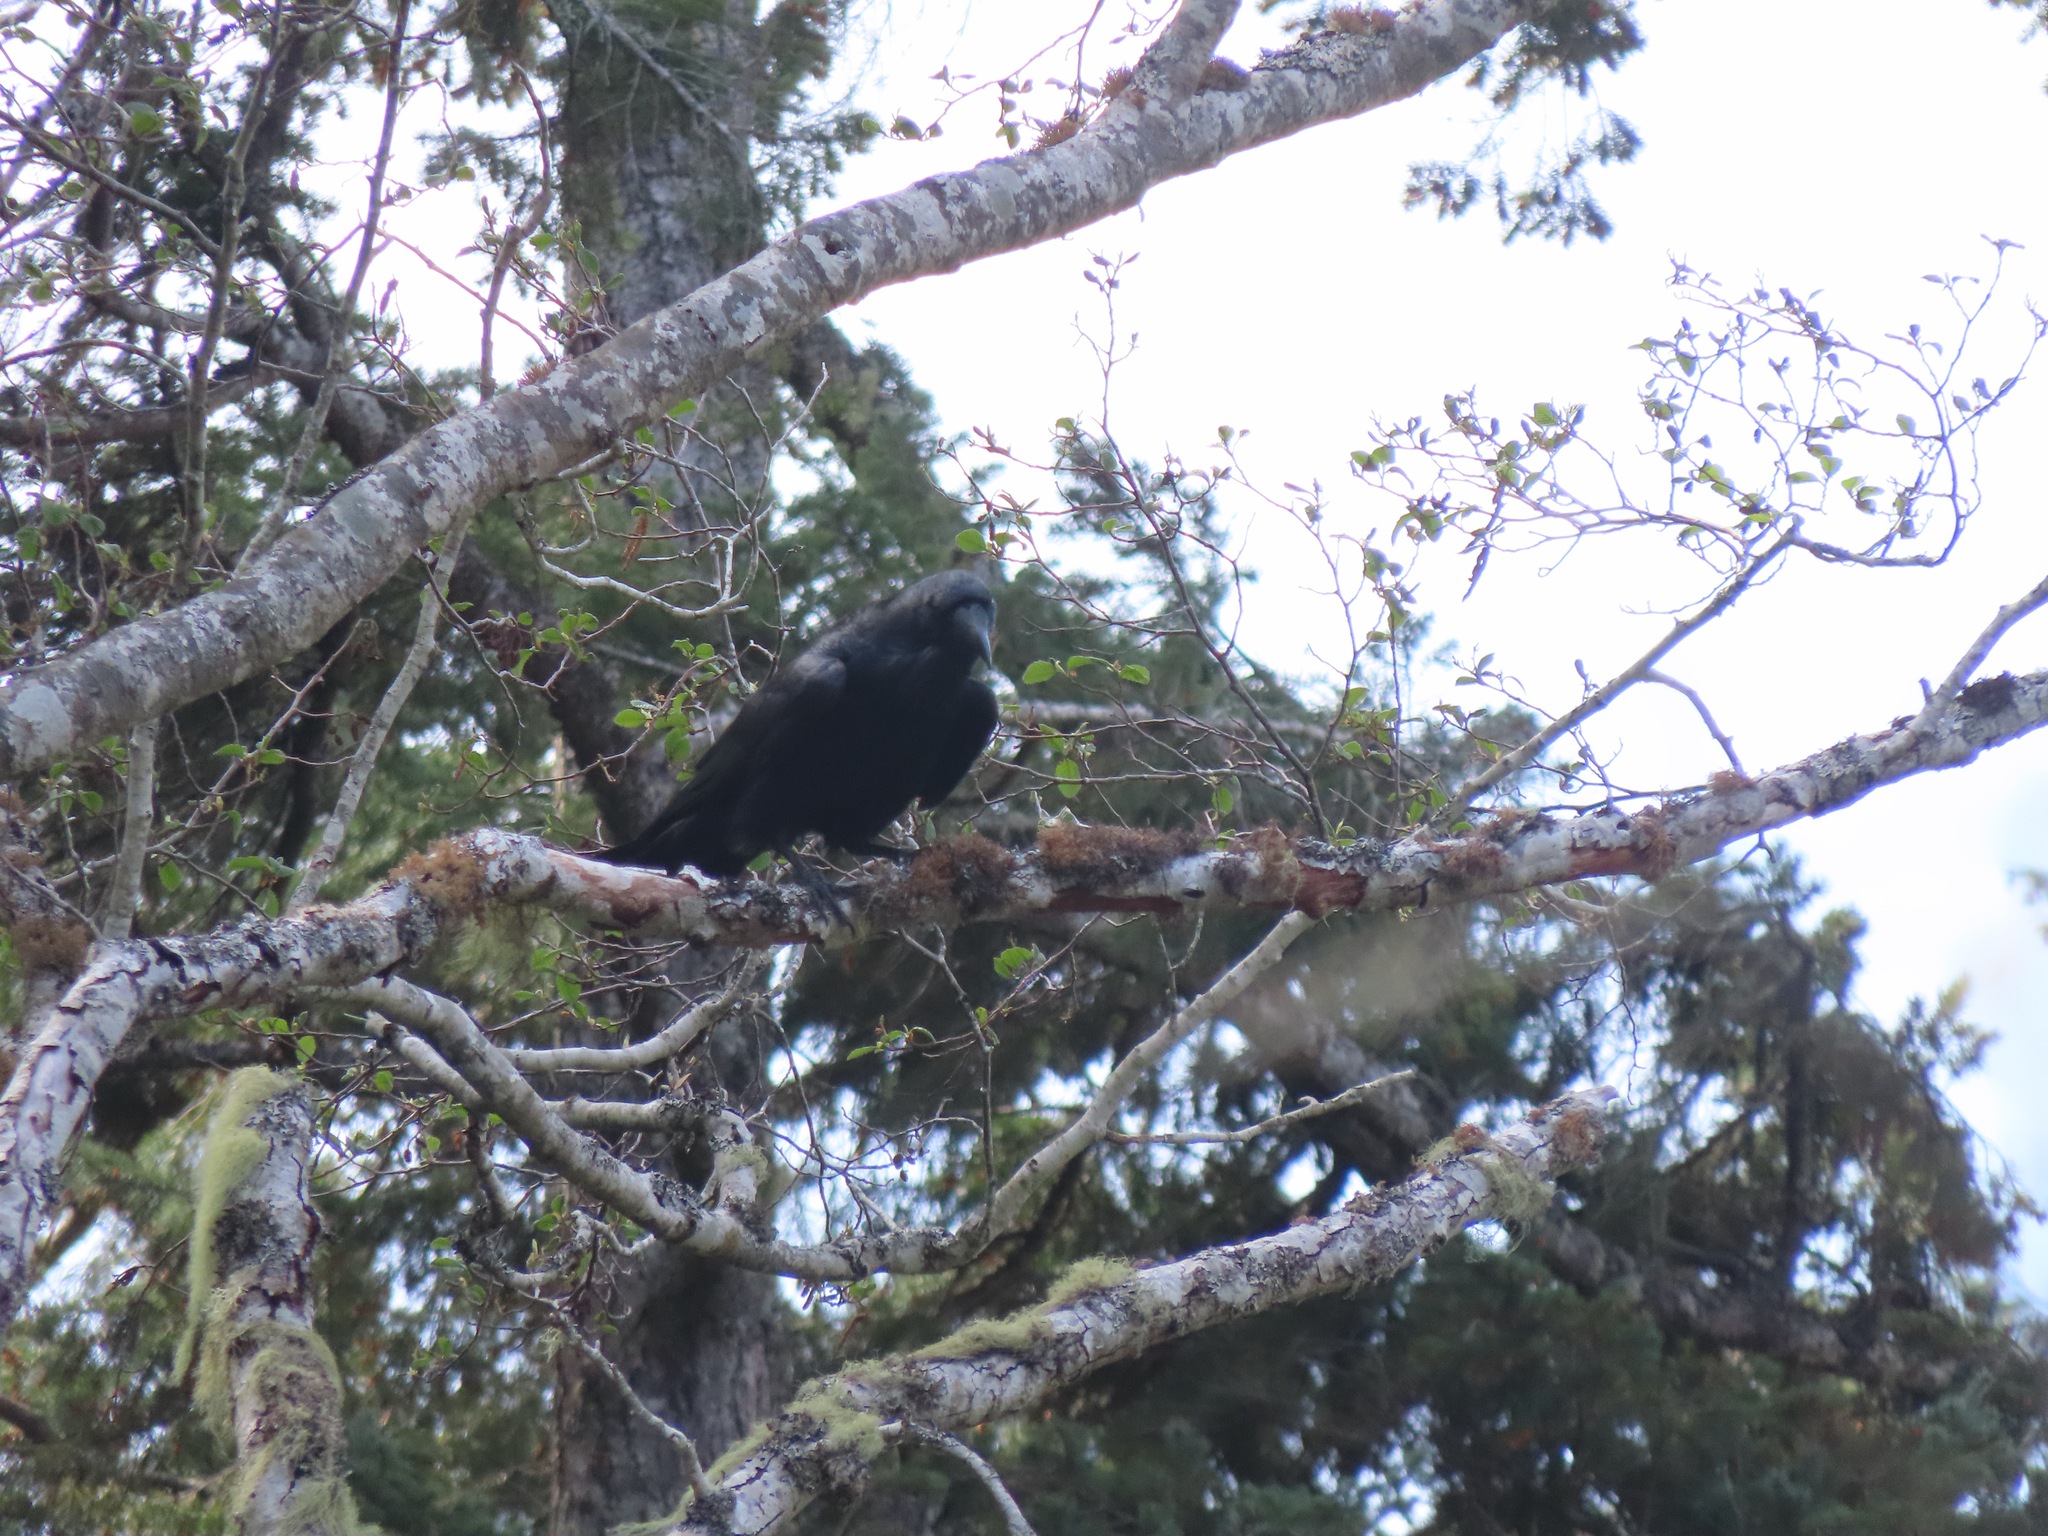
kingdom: Animalia
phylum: Chordata
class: Aves
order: Passeriformes
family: Corvidae
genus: Corvus
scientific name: Corvus corax
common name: Common raven
